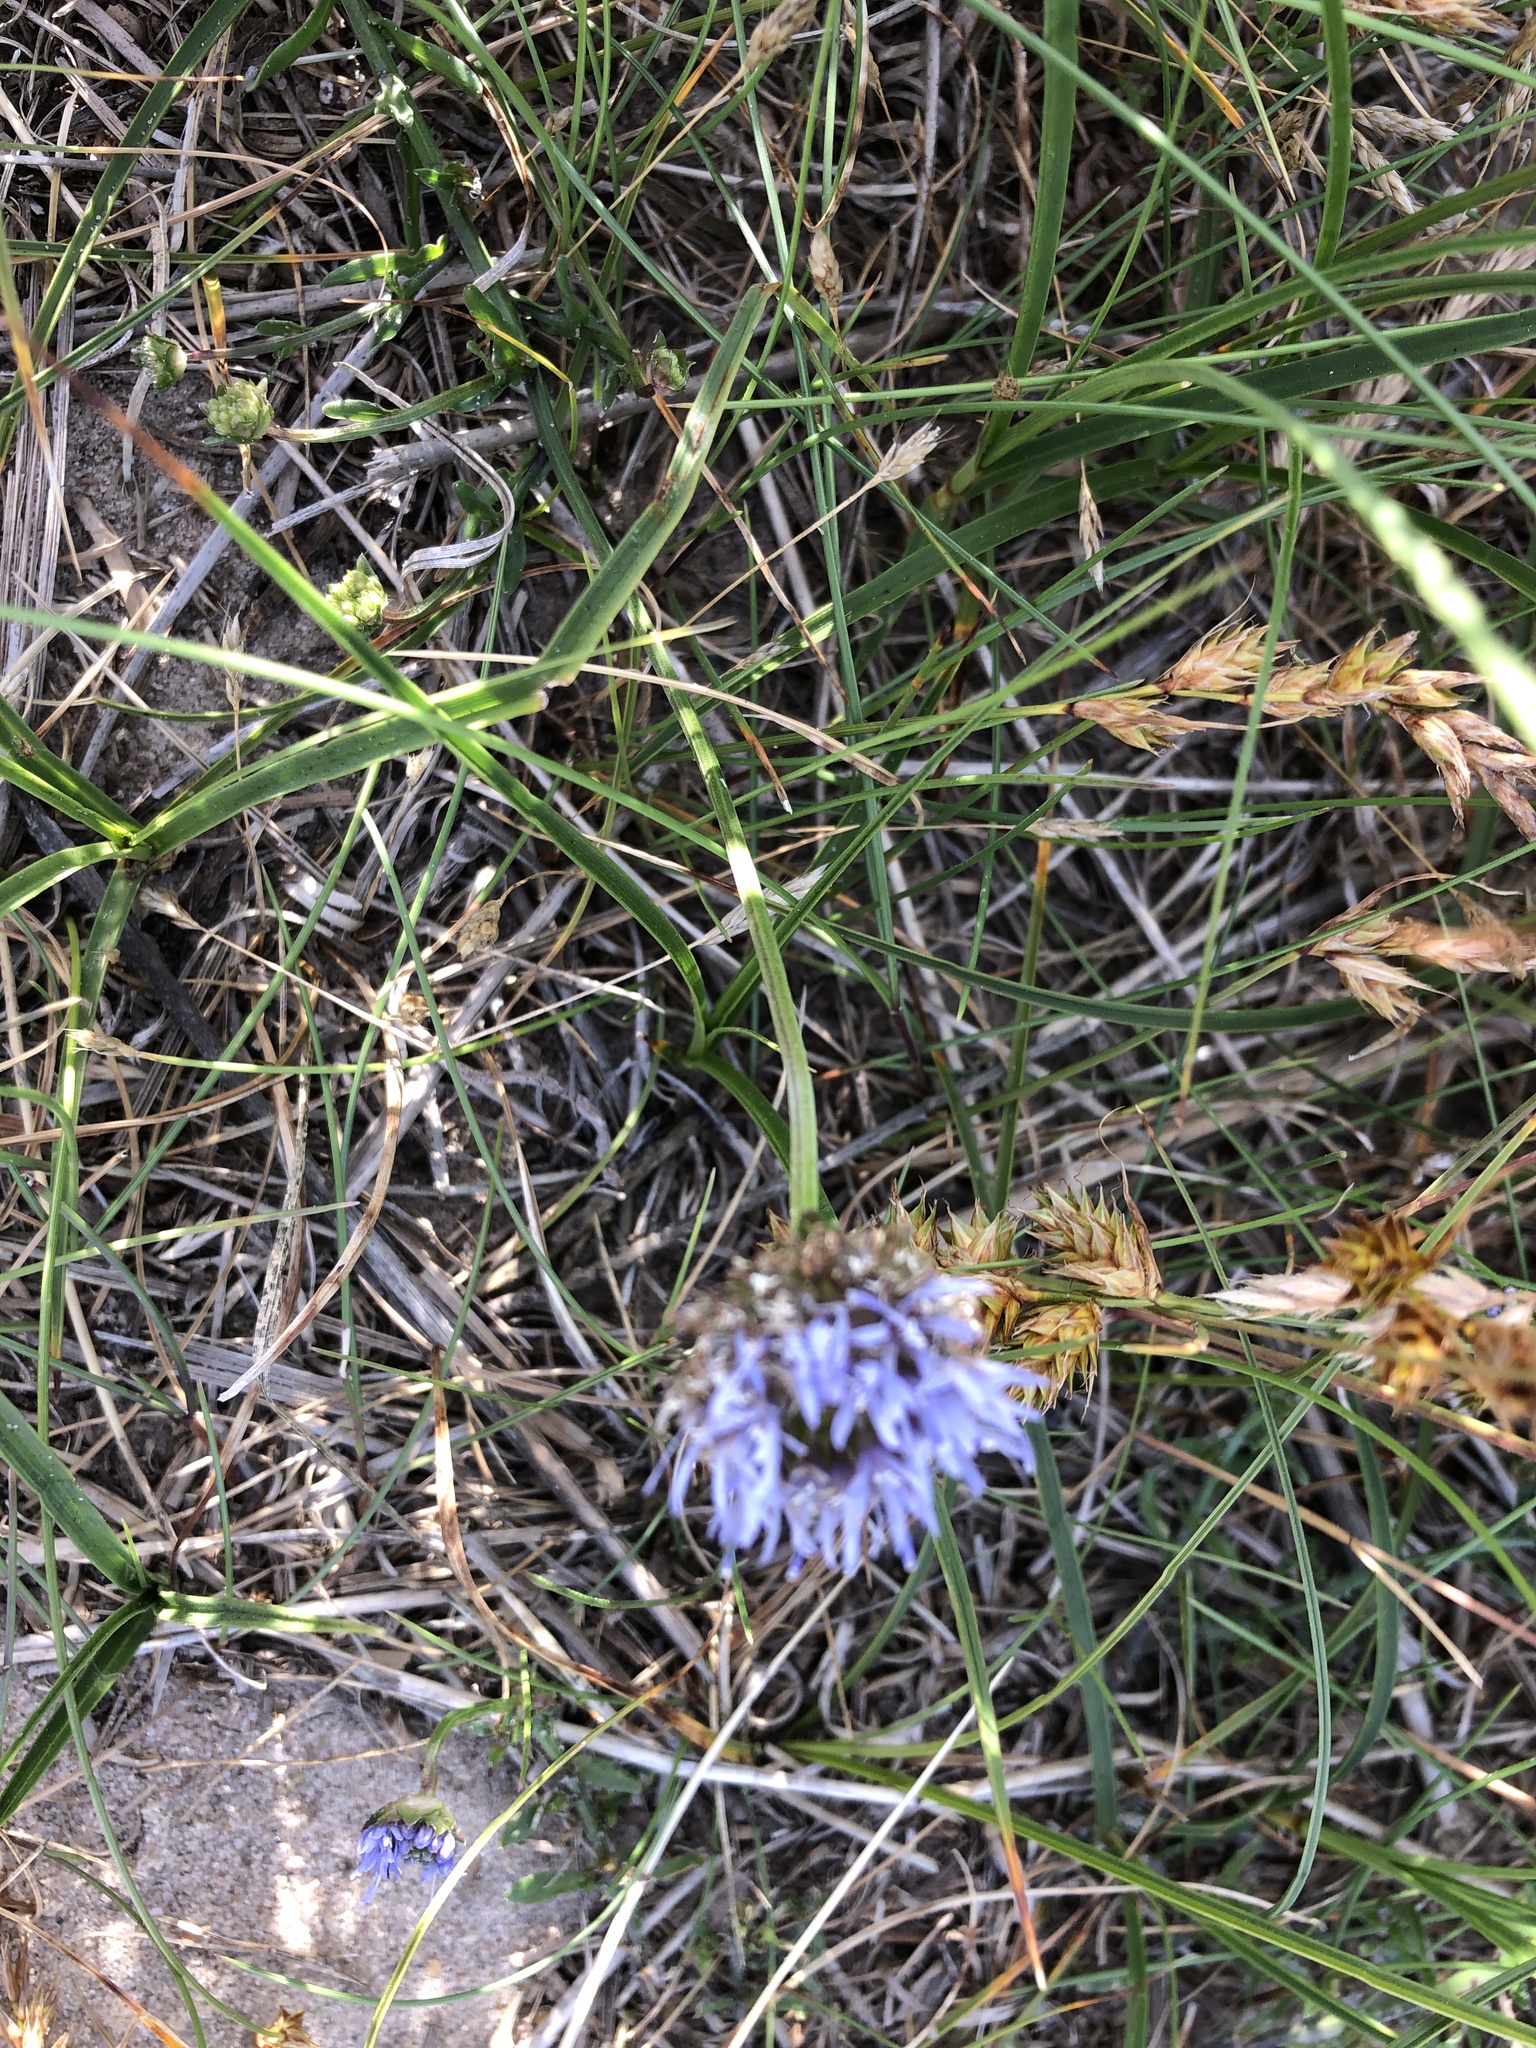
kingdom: Plantae
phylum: Tracheophyta
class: Magnoliopsida
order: Asterales
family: Campanulaceae
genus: Jasione
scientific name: Jasione montana
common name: Sheep's-bit
